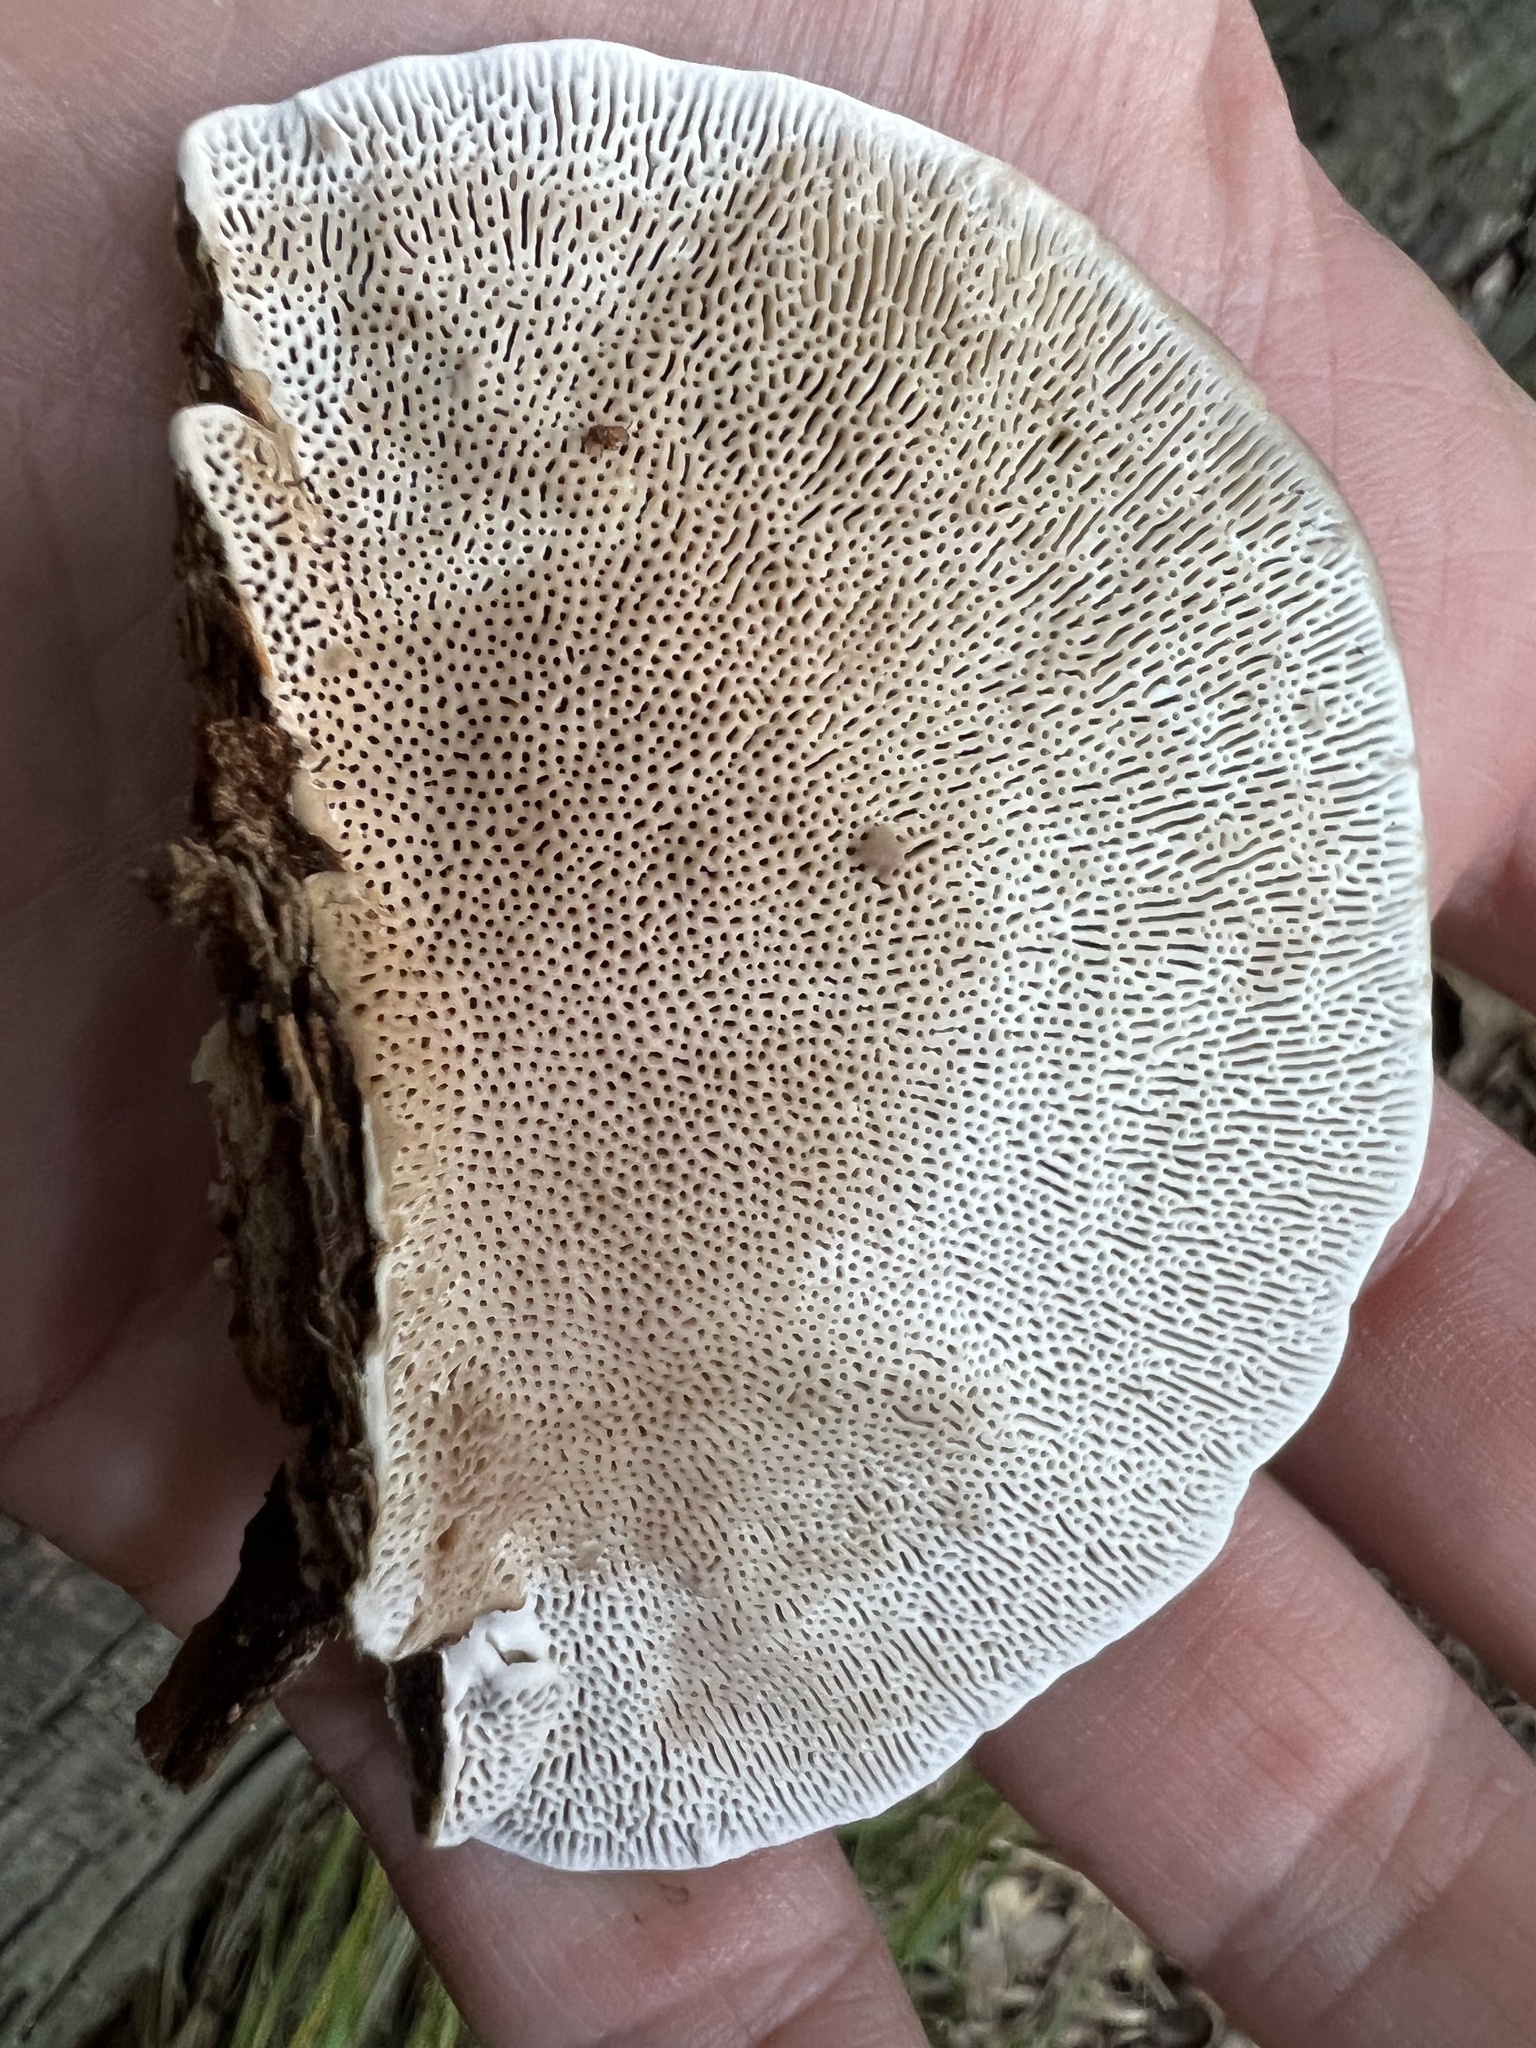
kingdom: Fungi
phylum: Basidiomycota
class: Agaricomycetes
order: Polyporales
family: Polyporaceae
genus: Daedaleopsis
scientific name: Daedaleopsis confragosa
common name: Blushing bracket
